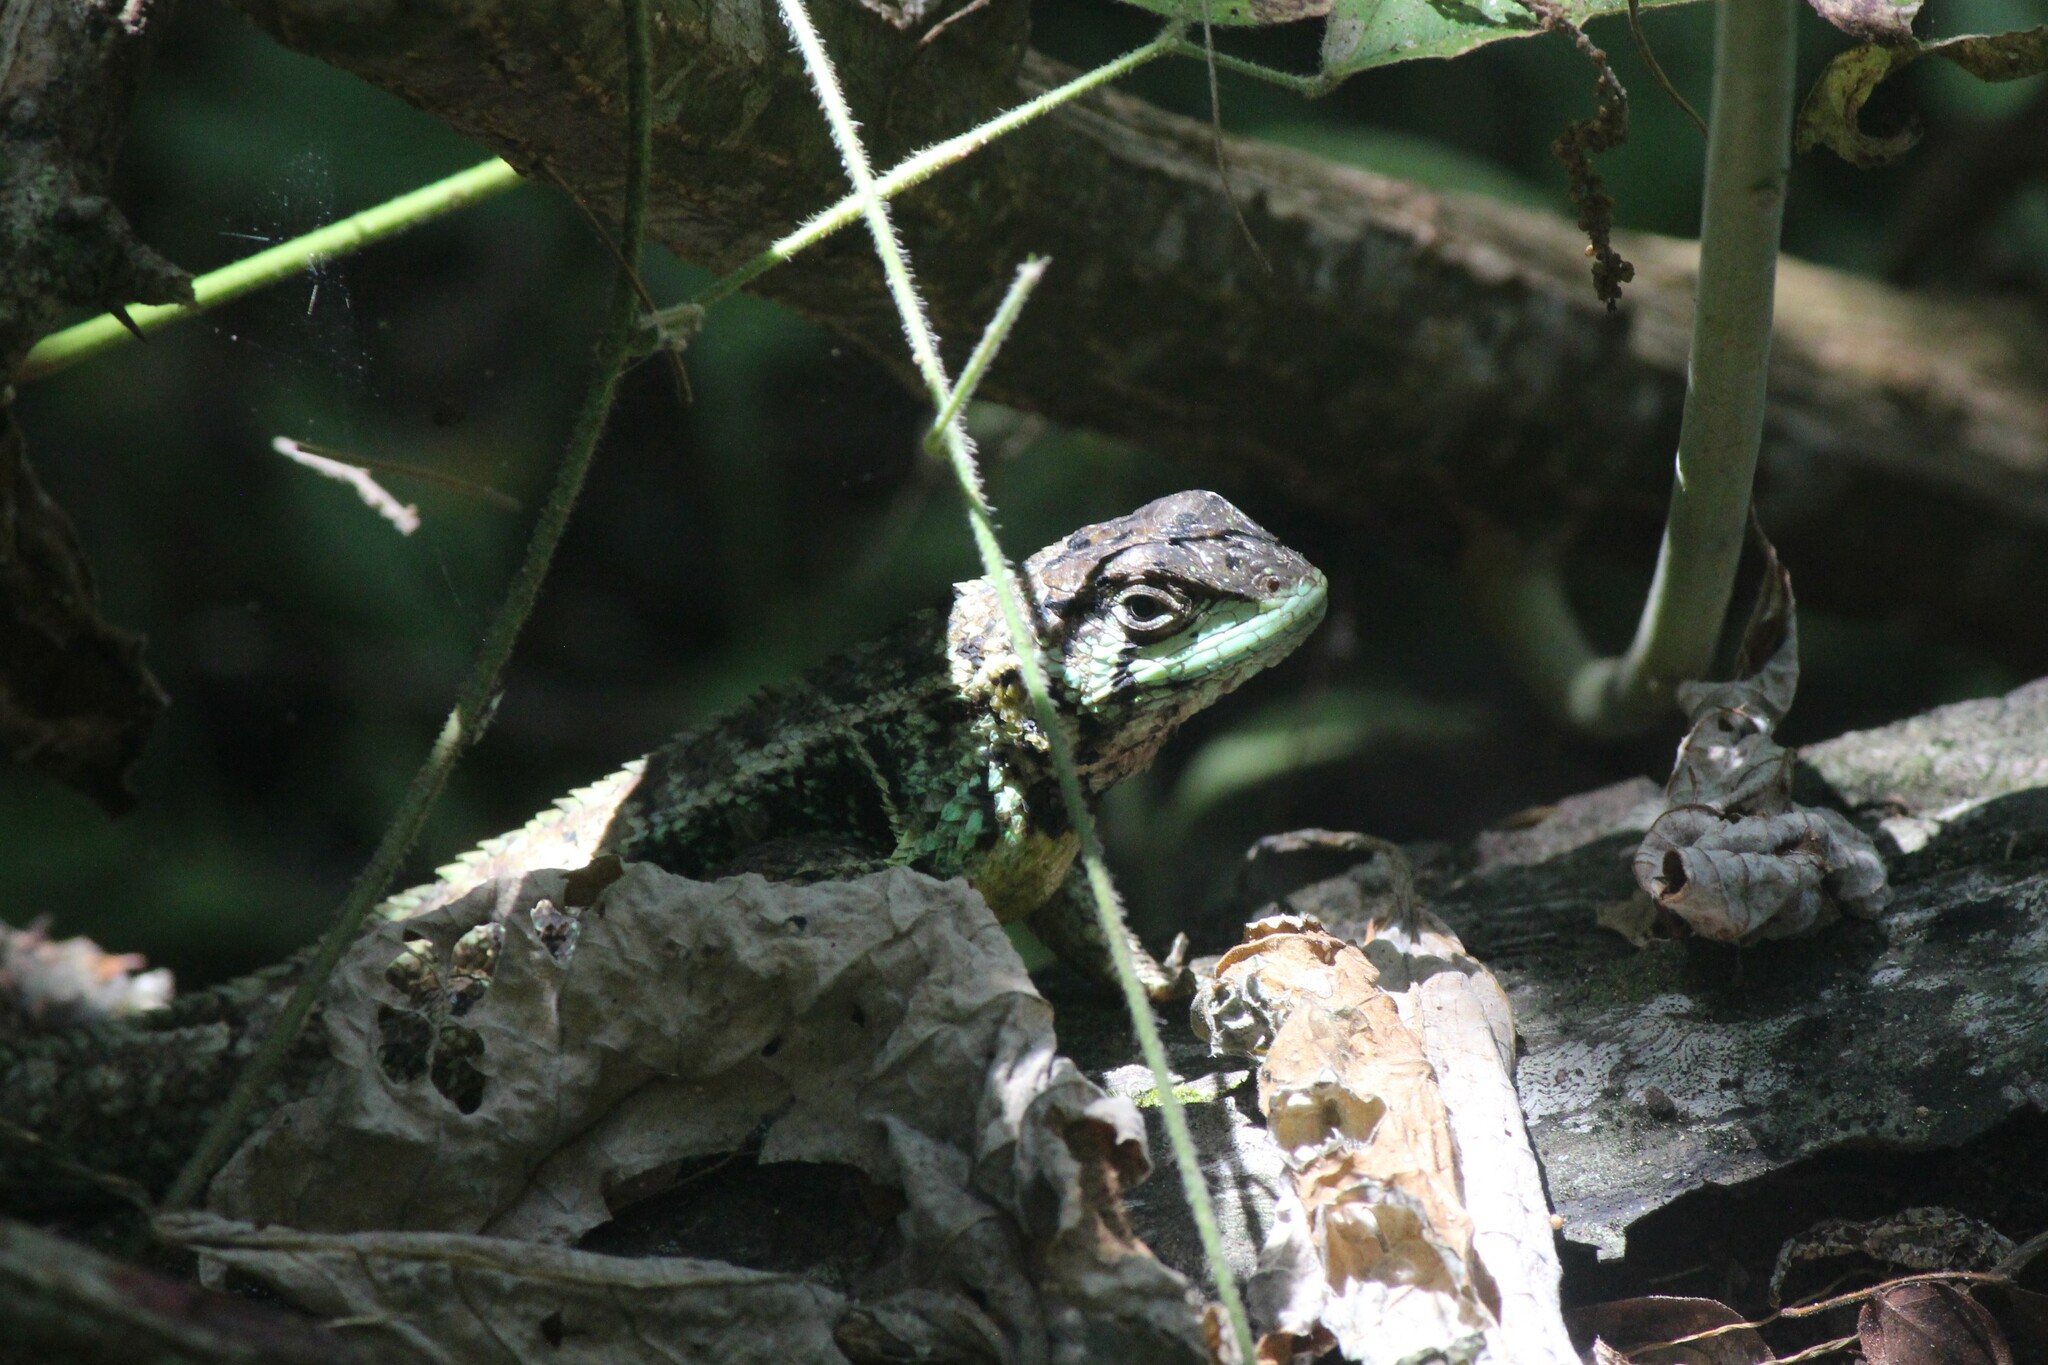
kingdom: Animalia
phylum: Chordata
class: Squamata
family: Tropiduridae
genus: Stenocercus
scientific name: Stenocercus iridescens
